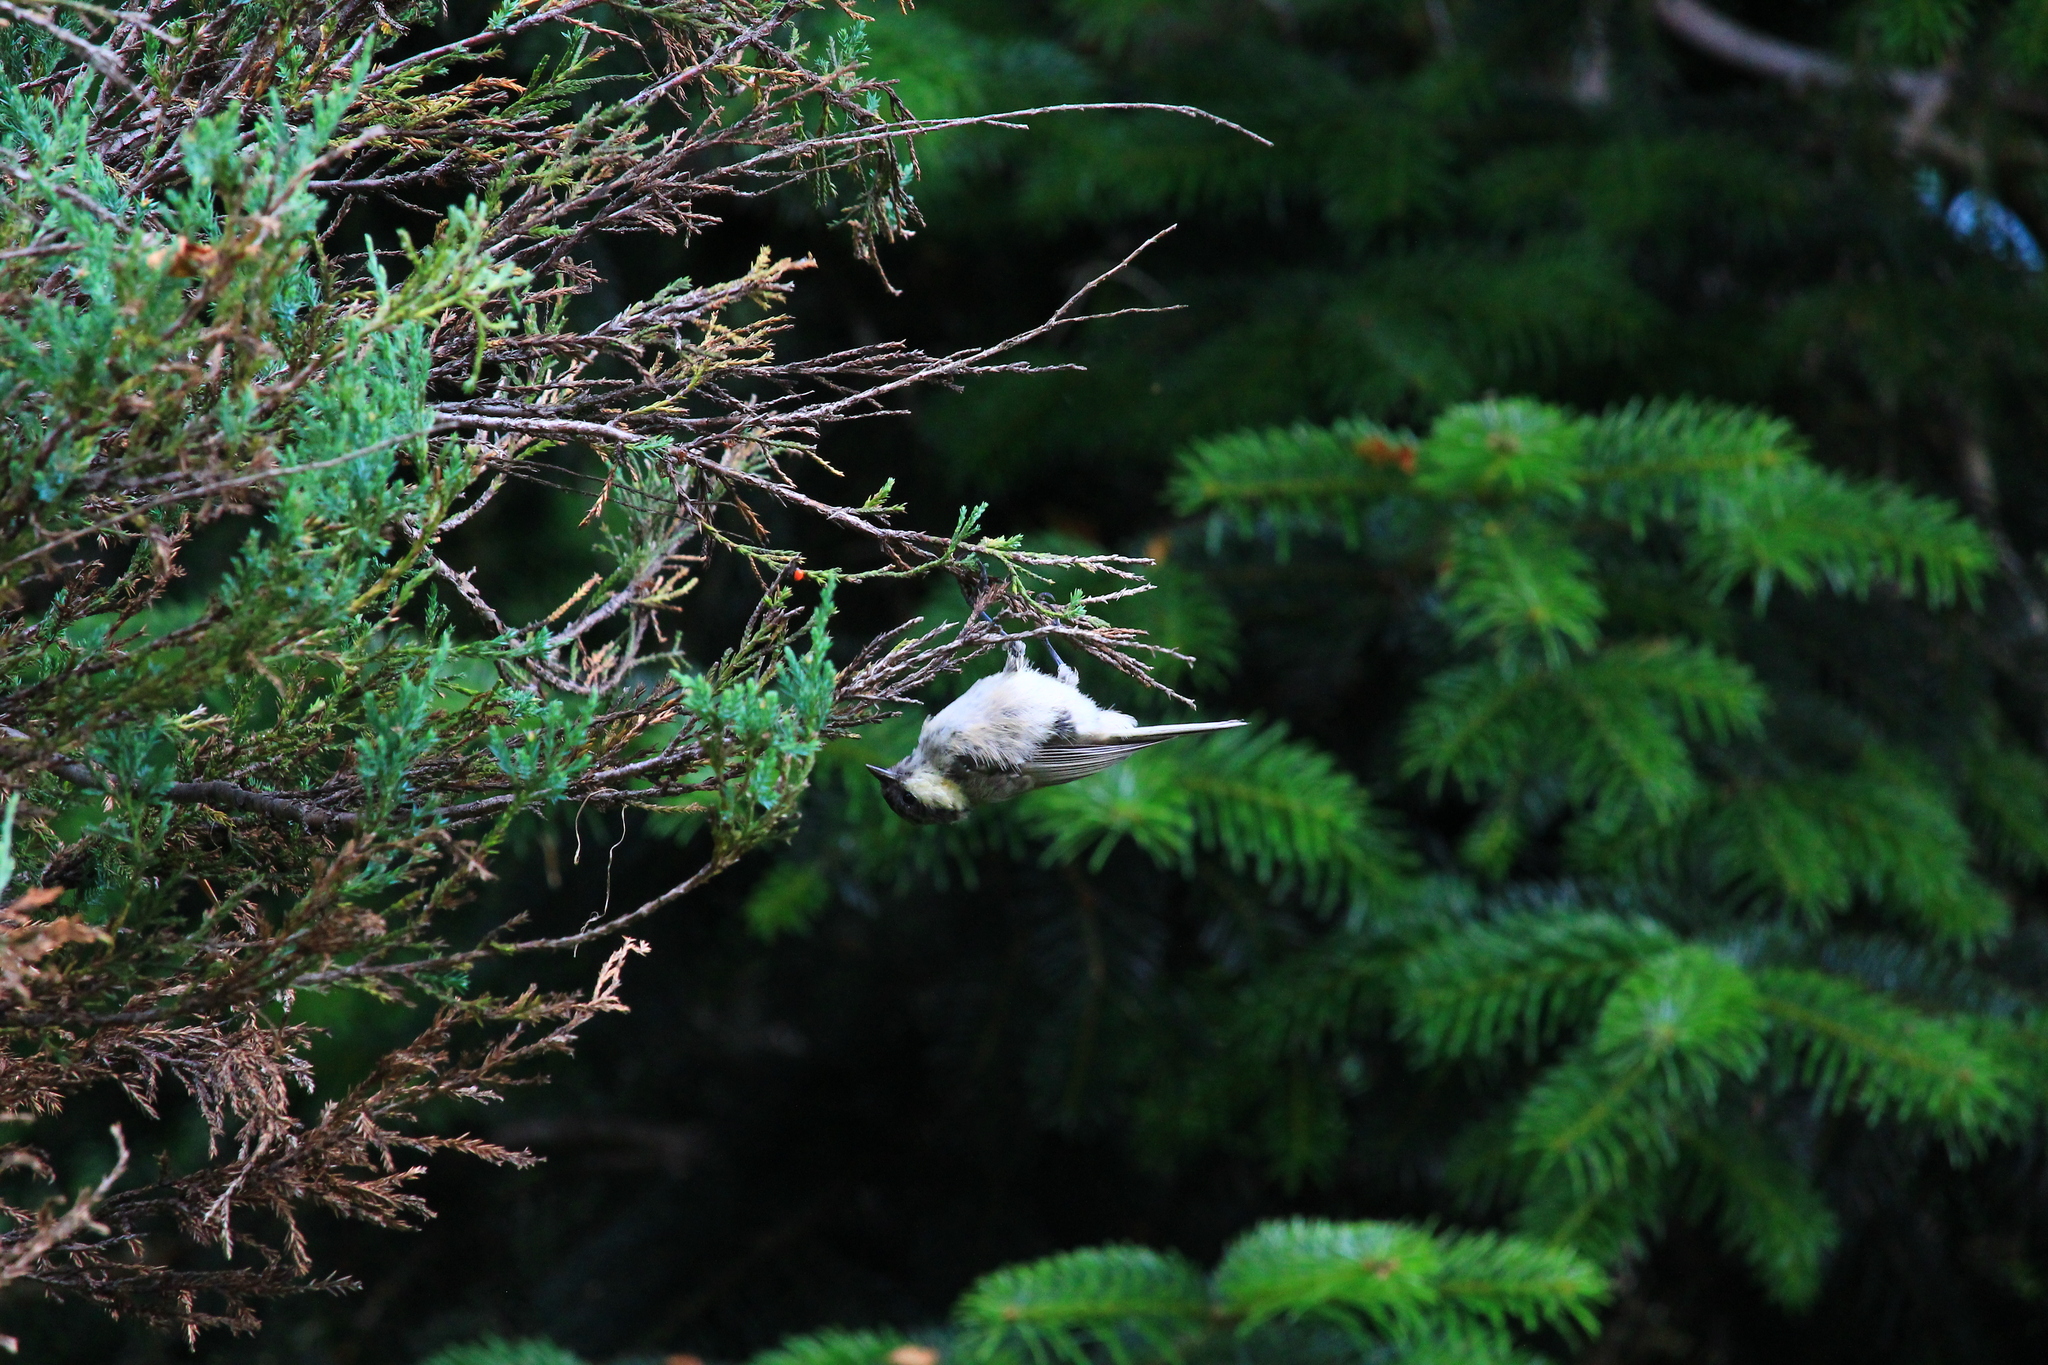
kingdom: Animalia
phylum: Chordata
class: Aves
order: Passeriformes
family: Paridae
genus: Periparus
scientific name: Periparus ater
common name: Coal tit
